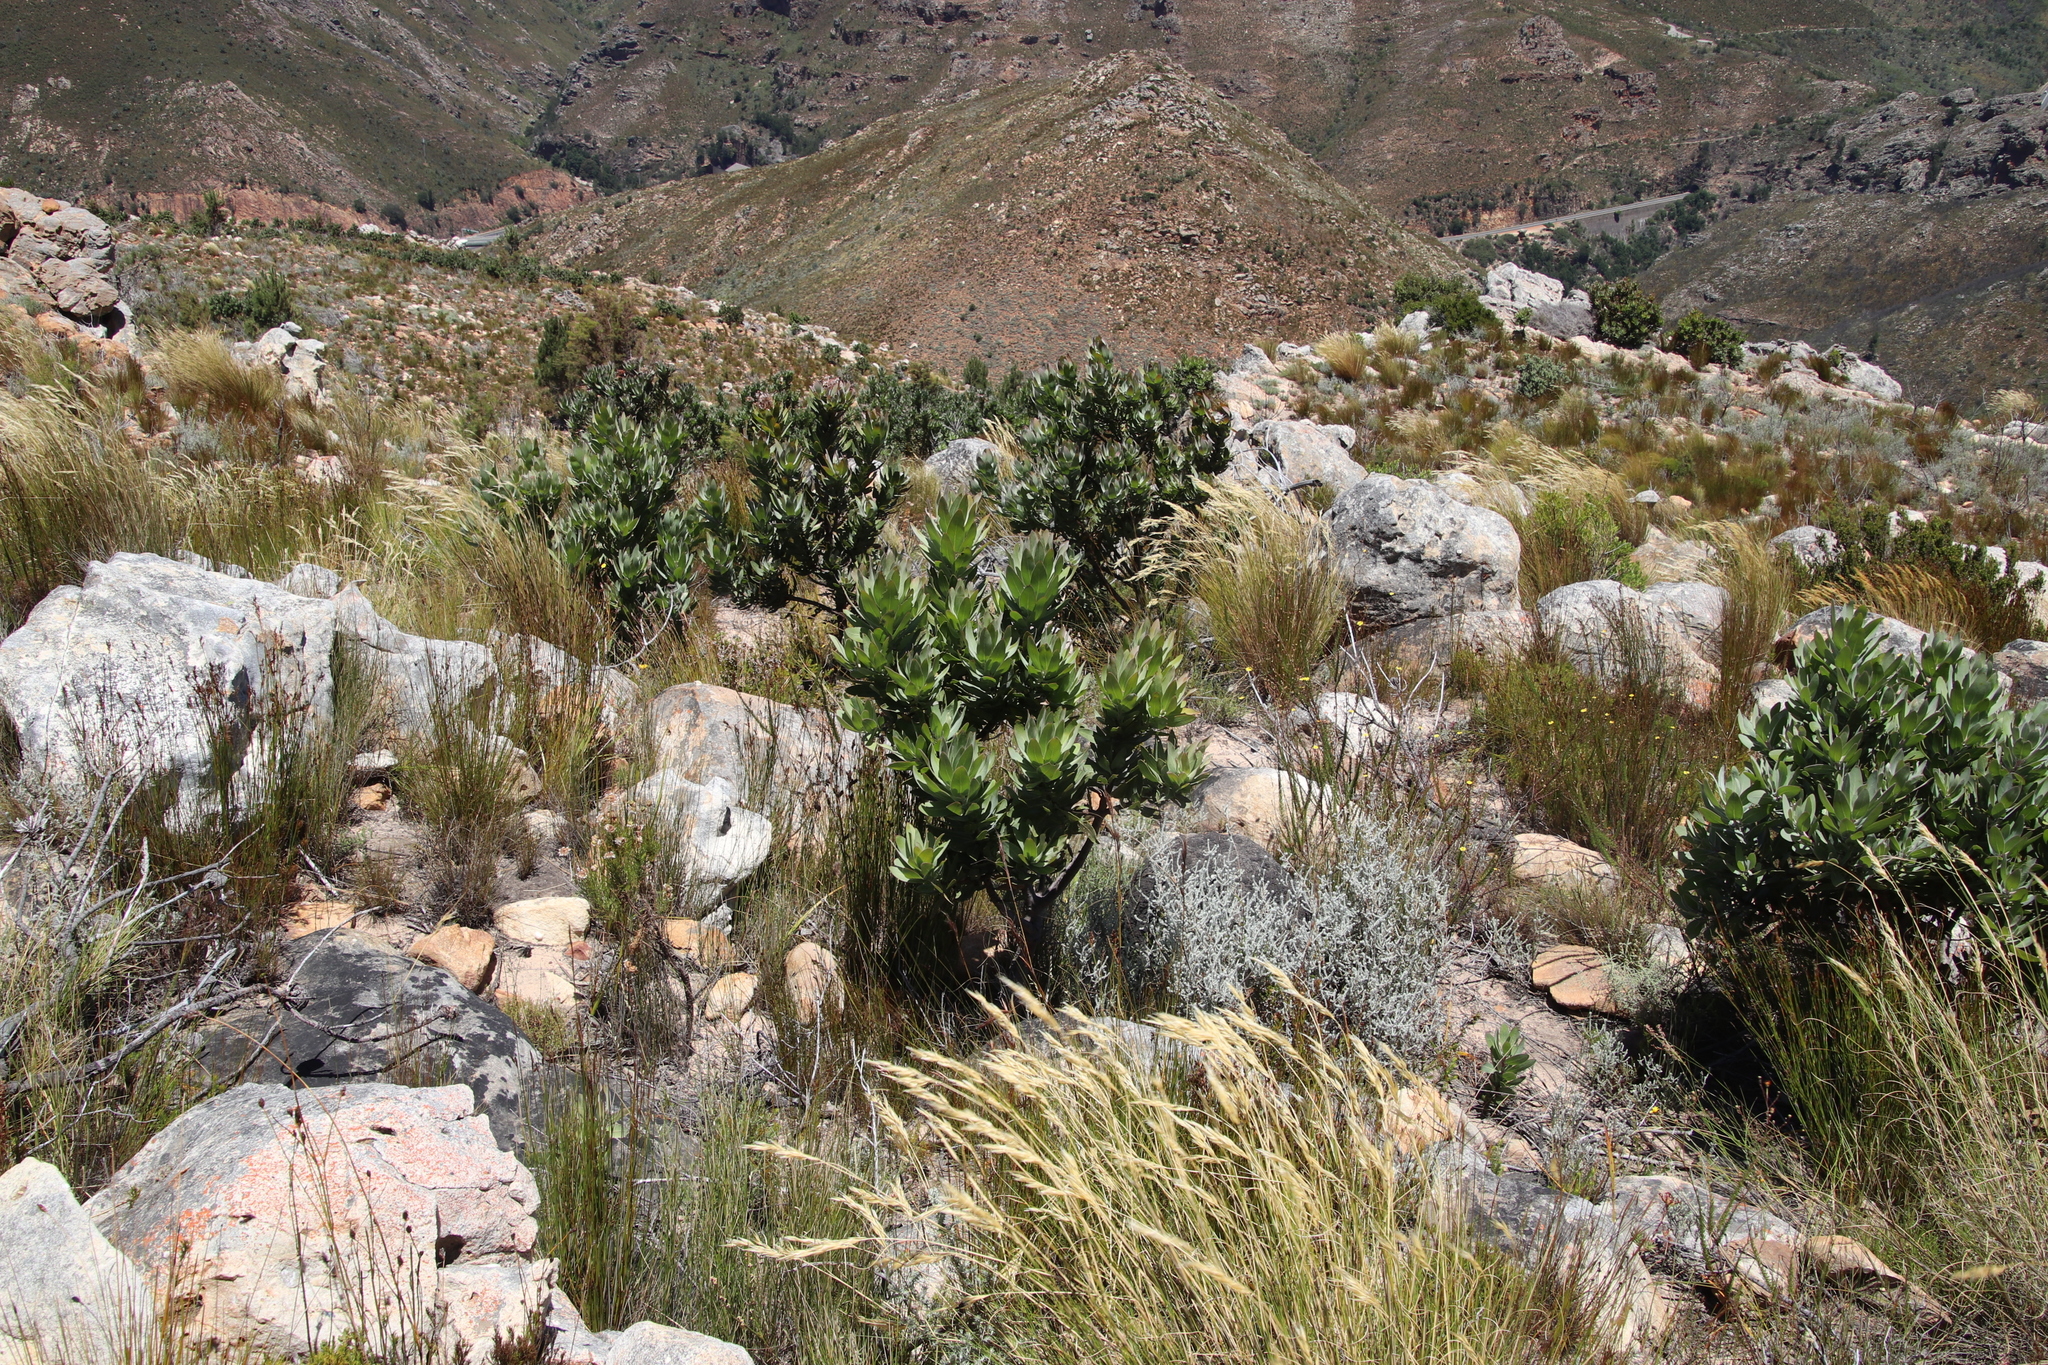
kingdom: Plantae
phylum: Tracheophyta
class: Magnoliopsida
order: Proteales
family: Proteaceae
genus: Protea
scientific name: Protea laurifolia
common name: Grey-leaf sugarbsh
